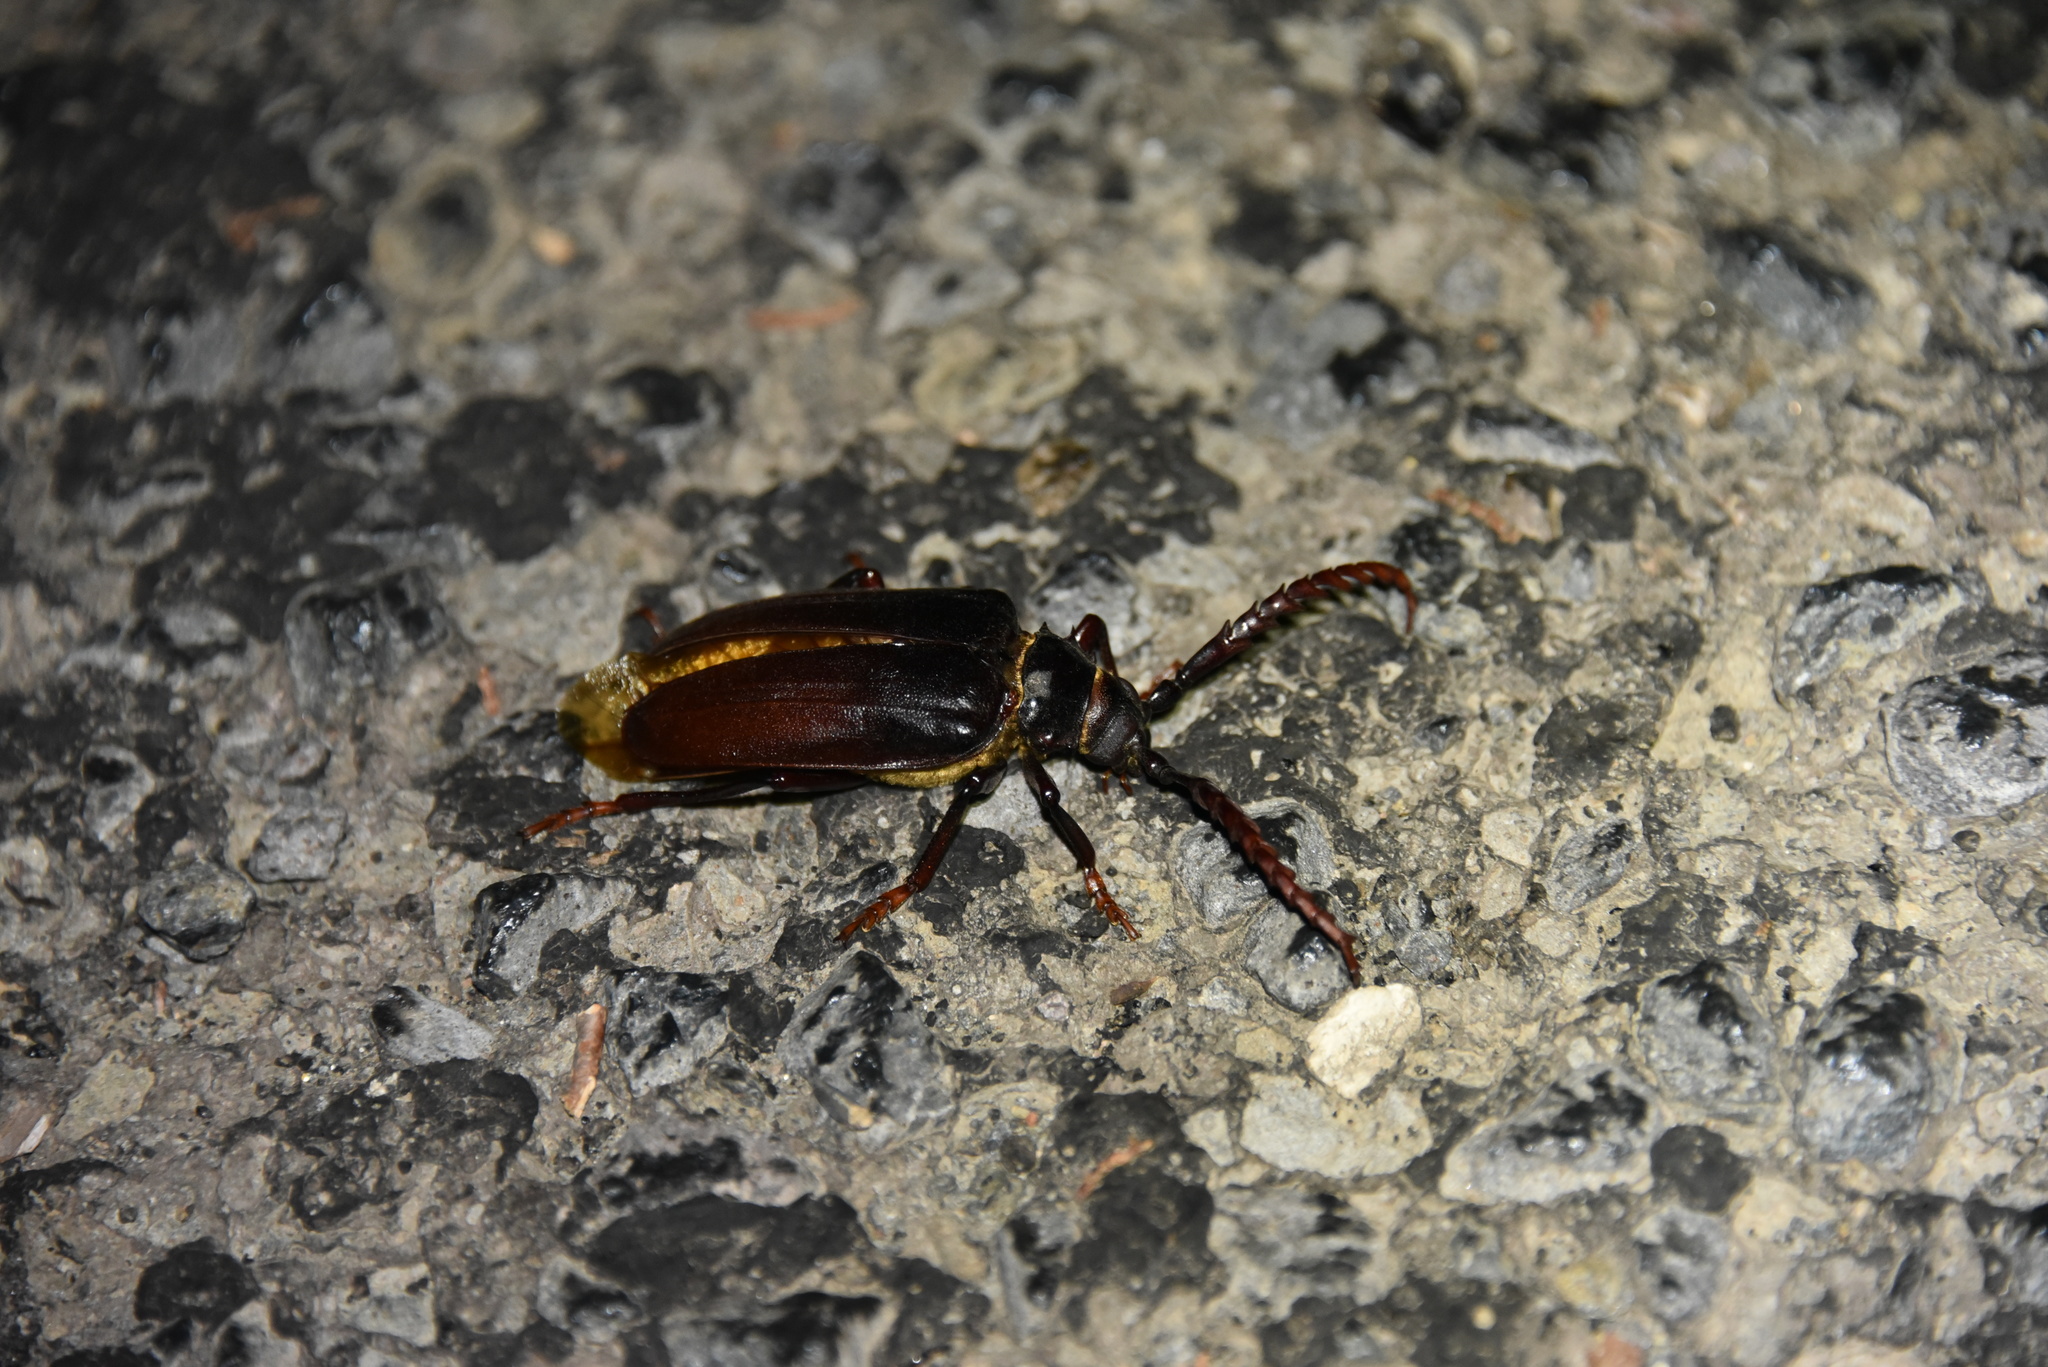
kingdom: Animalia
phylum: Arthropoda
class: Insecta
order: Coleoptera
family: Cerambycidae
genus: Prionus
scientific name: Prionus californicus
